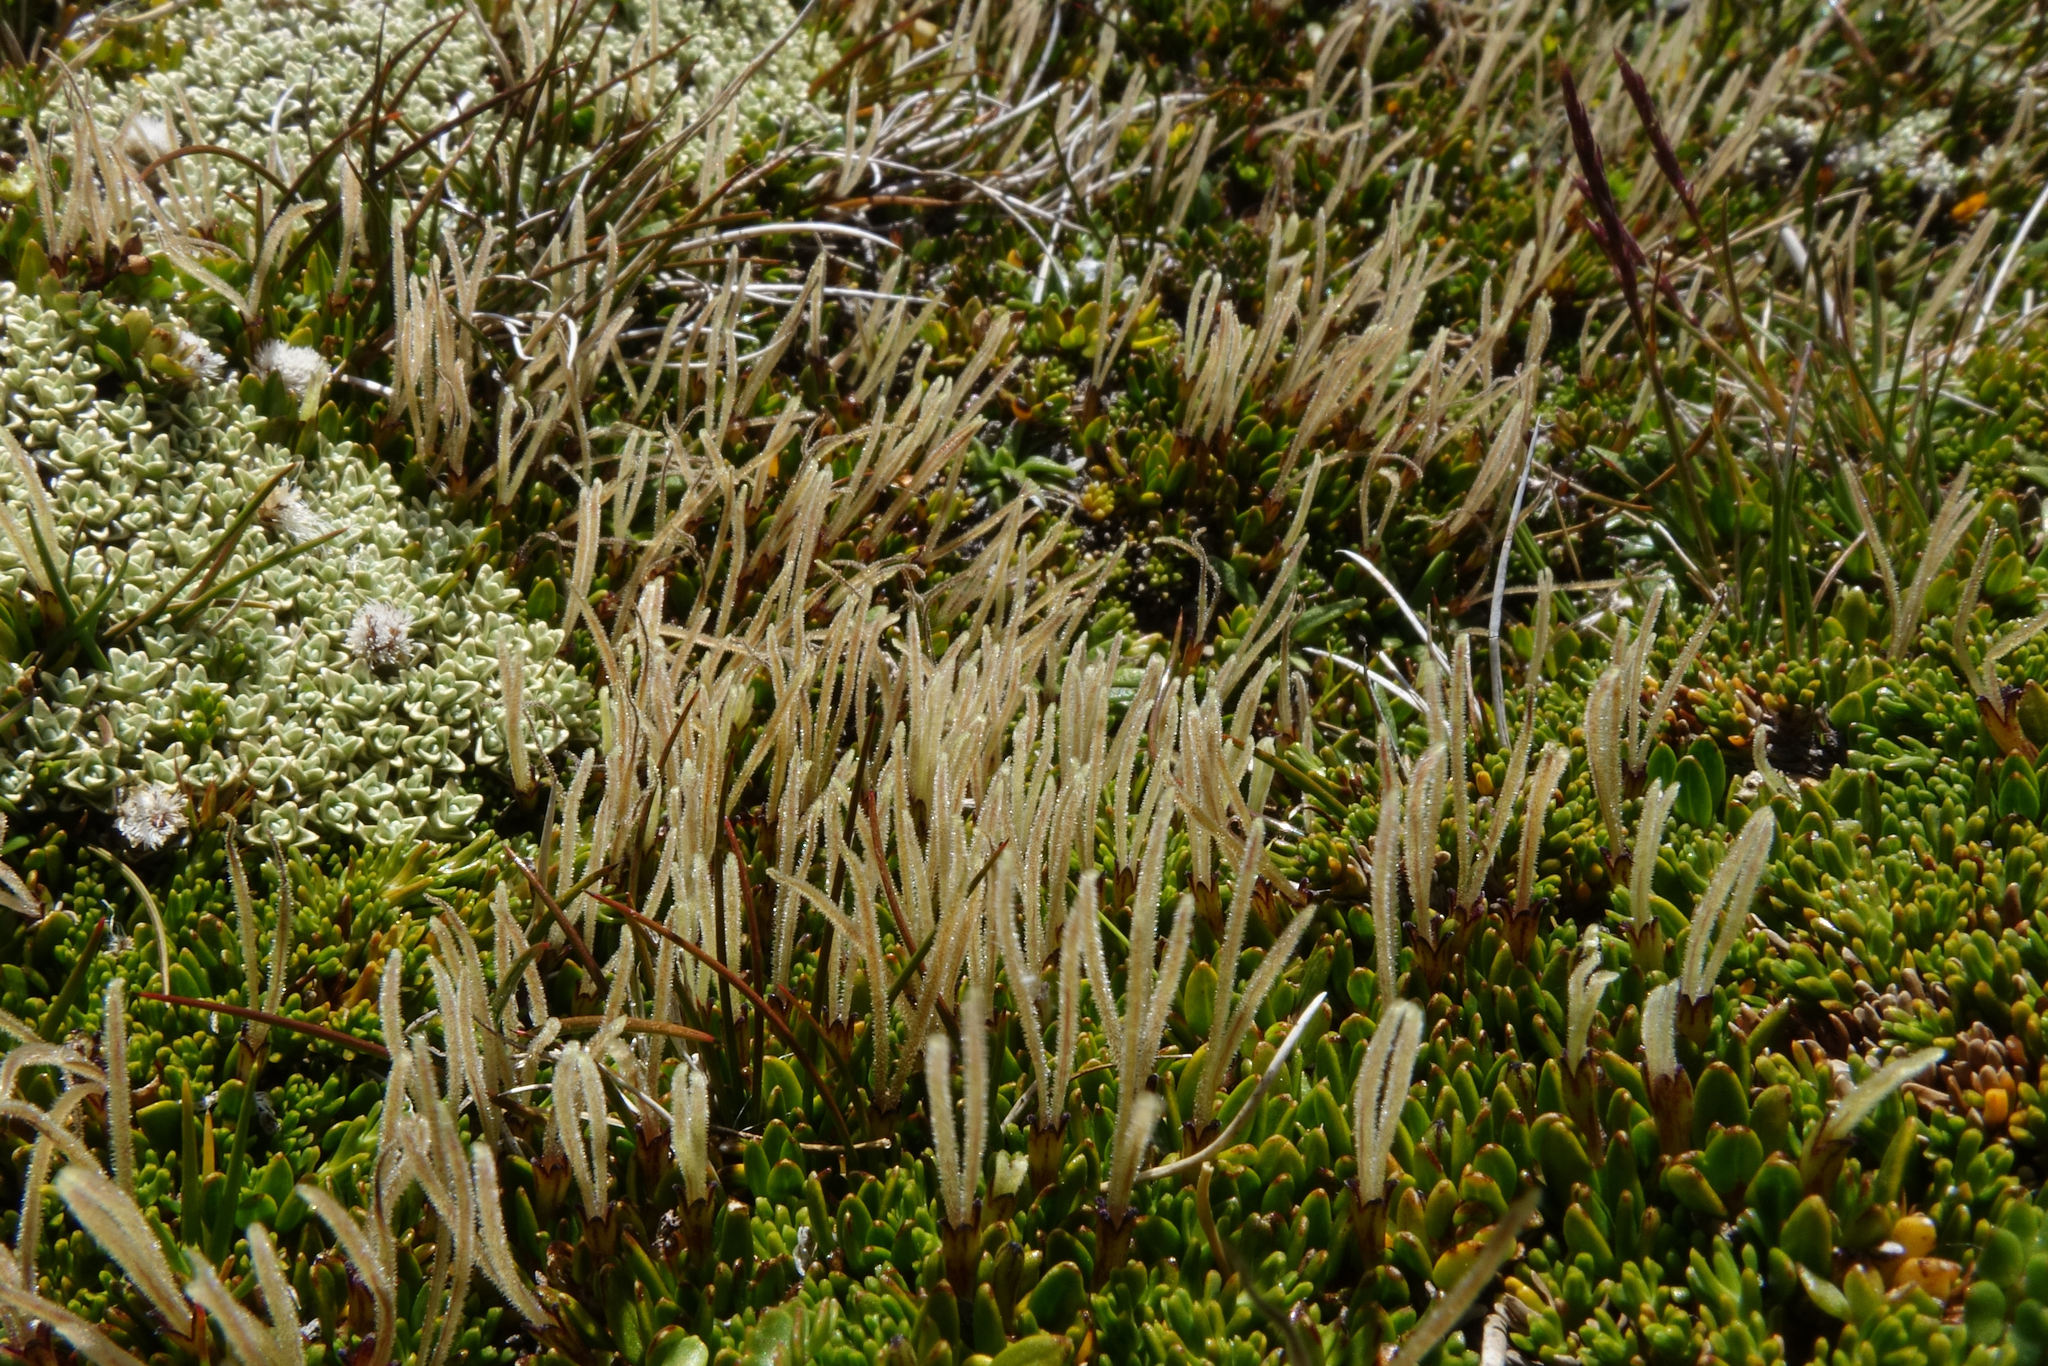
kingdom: Plantae
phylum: Tracheophyta
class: Magnoliopsida
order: Gentianales
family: Rubiaceae
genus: Coprosma
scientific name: Coprosma niphophila
